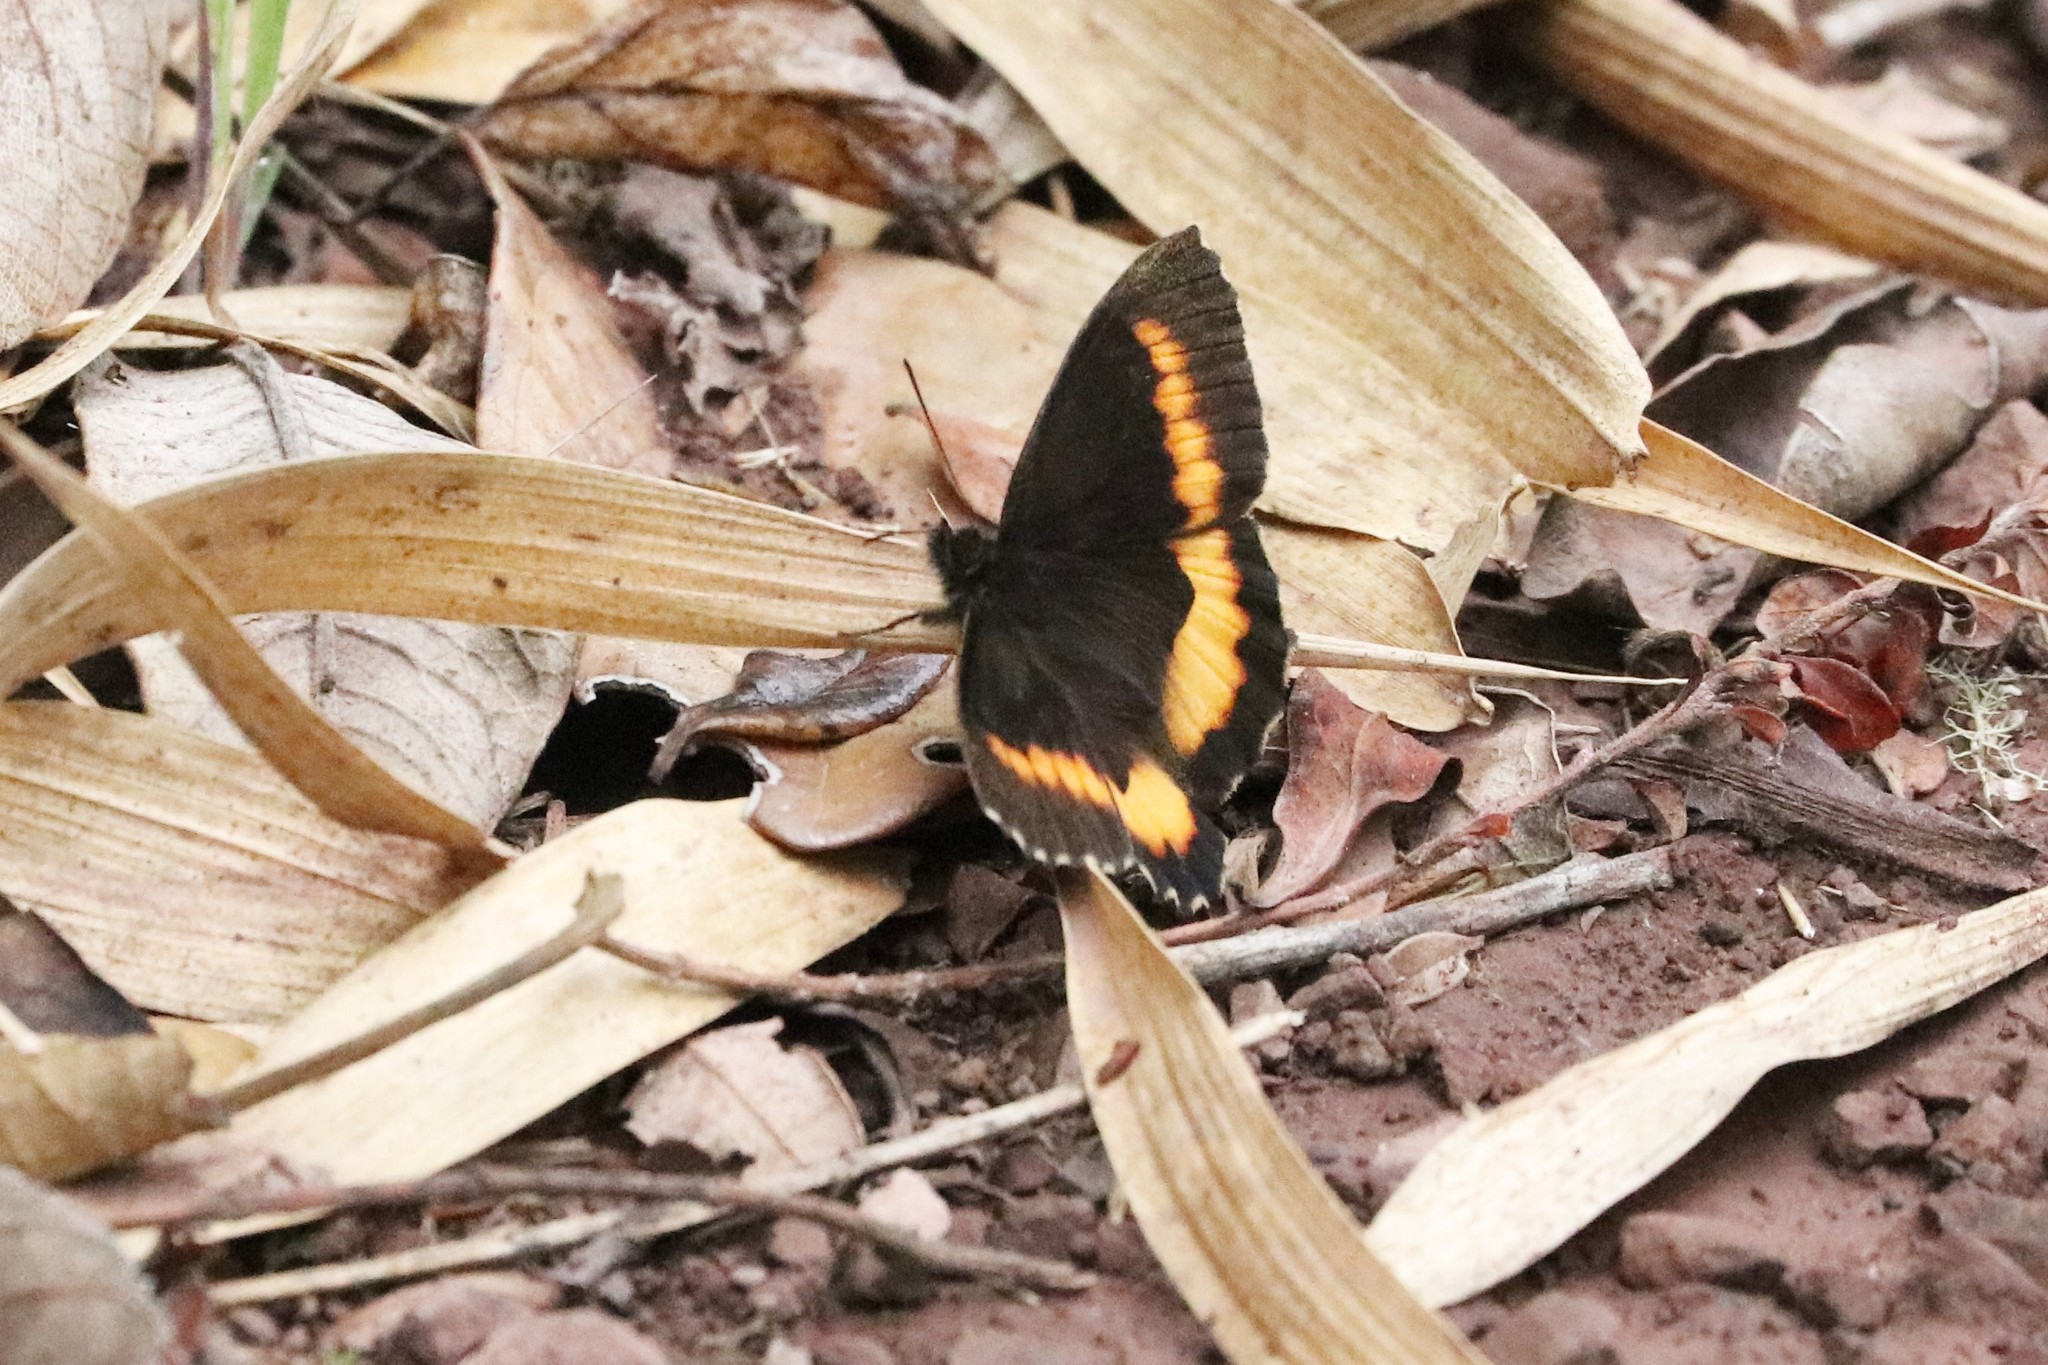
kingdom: Animalia
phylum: Arthropoda
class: Insecta
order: Lepidoptera
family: Nymphalidae
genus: Pedaliodes
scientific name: Pedaliodes cesarense
